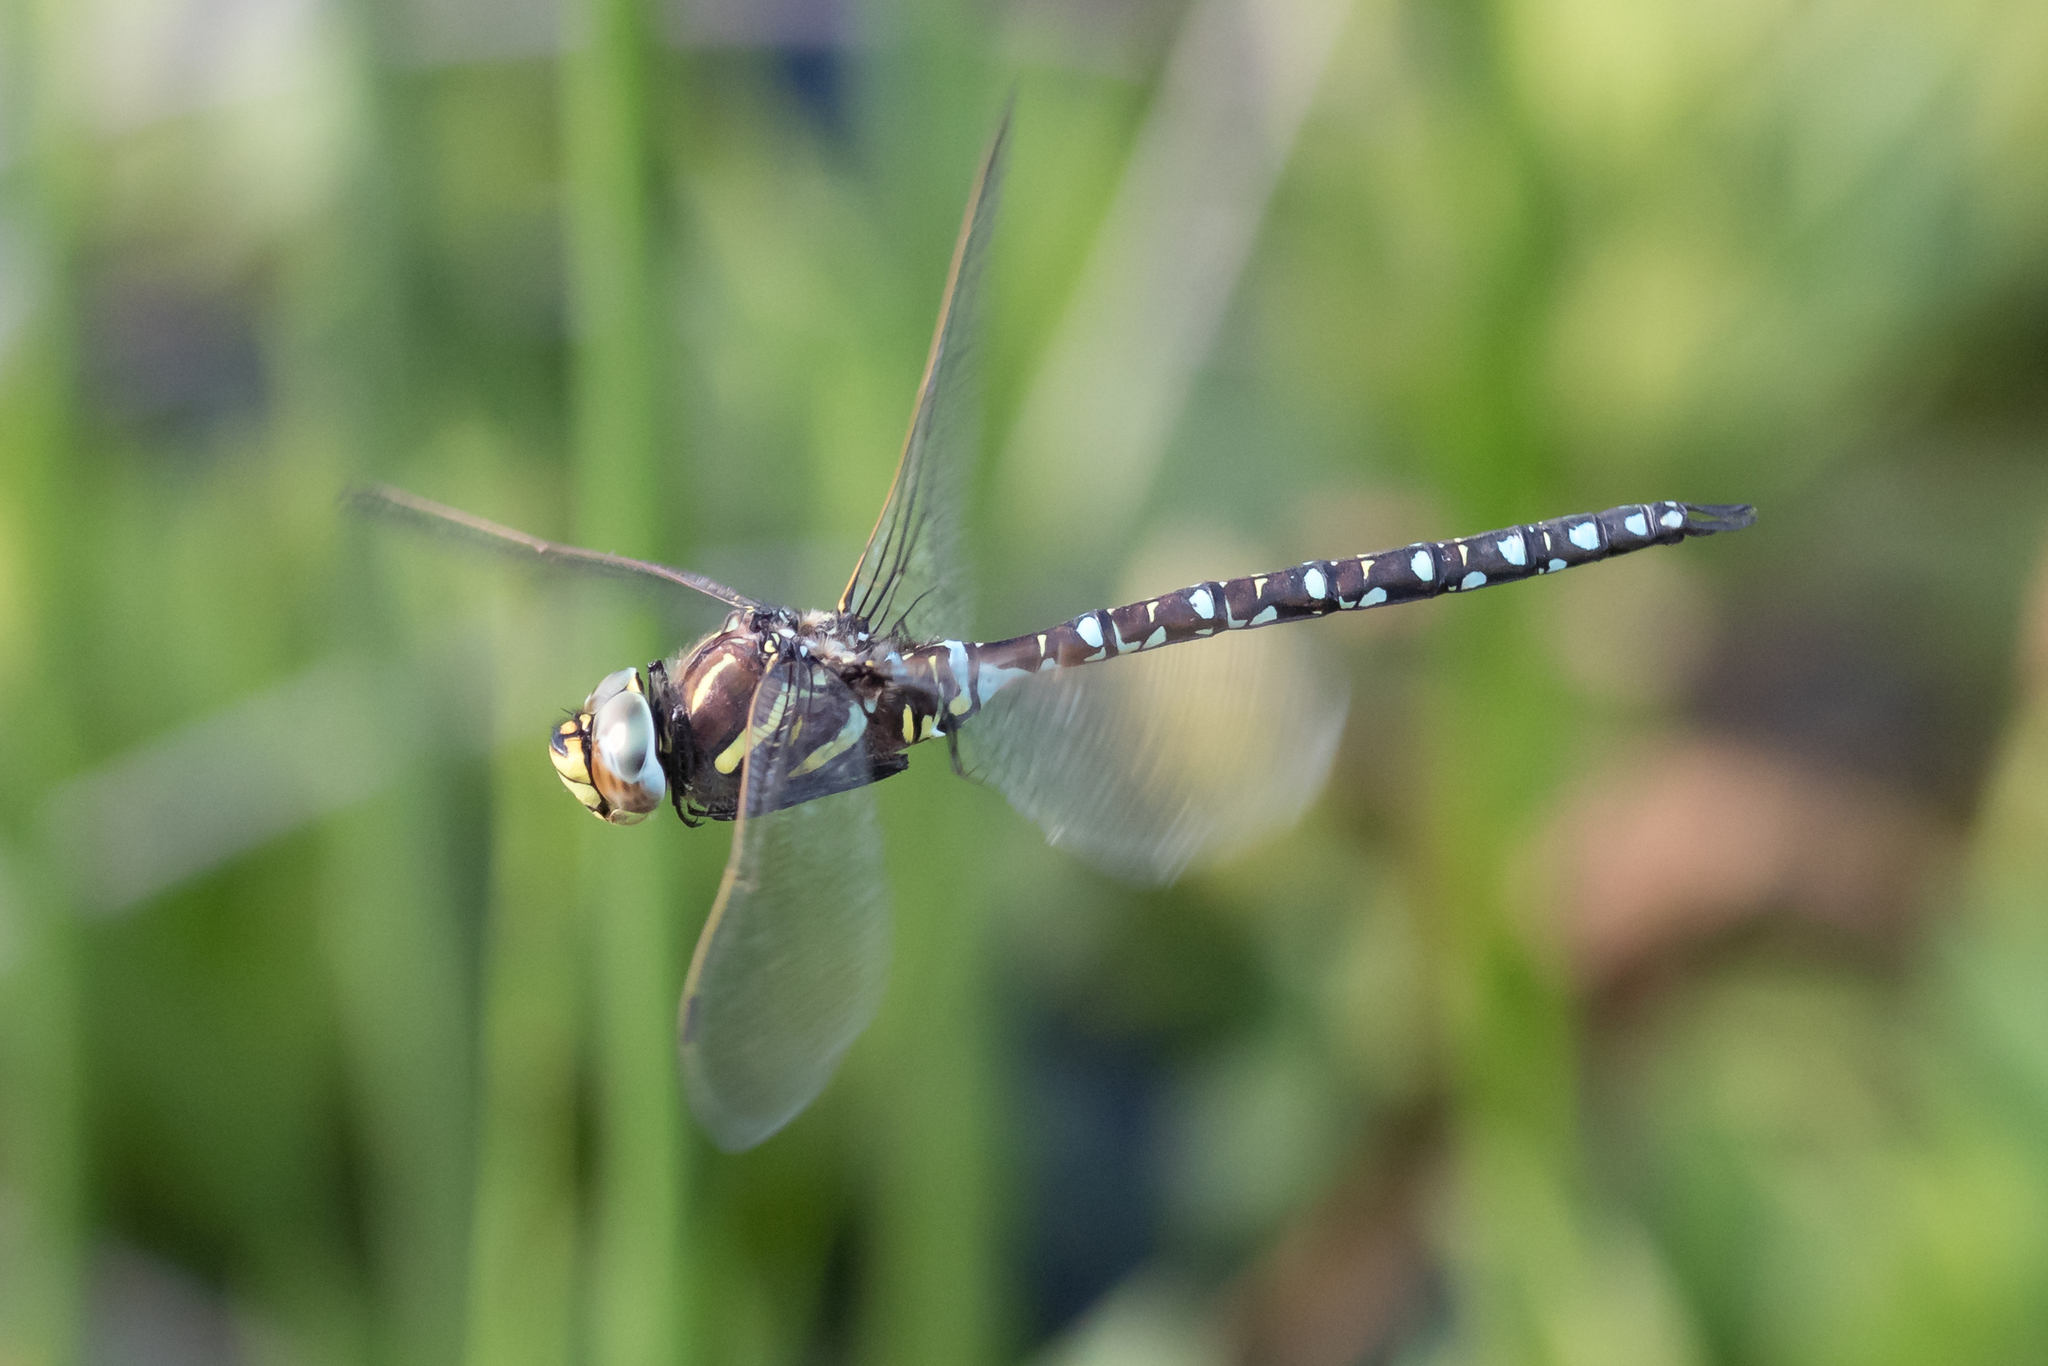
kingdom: Animalia
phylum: Arthropoda
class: Insecta
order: Odonata
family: Aeshnidae
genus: Aeshna
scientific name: Aeshna juncea
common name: Moorland hawker
